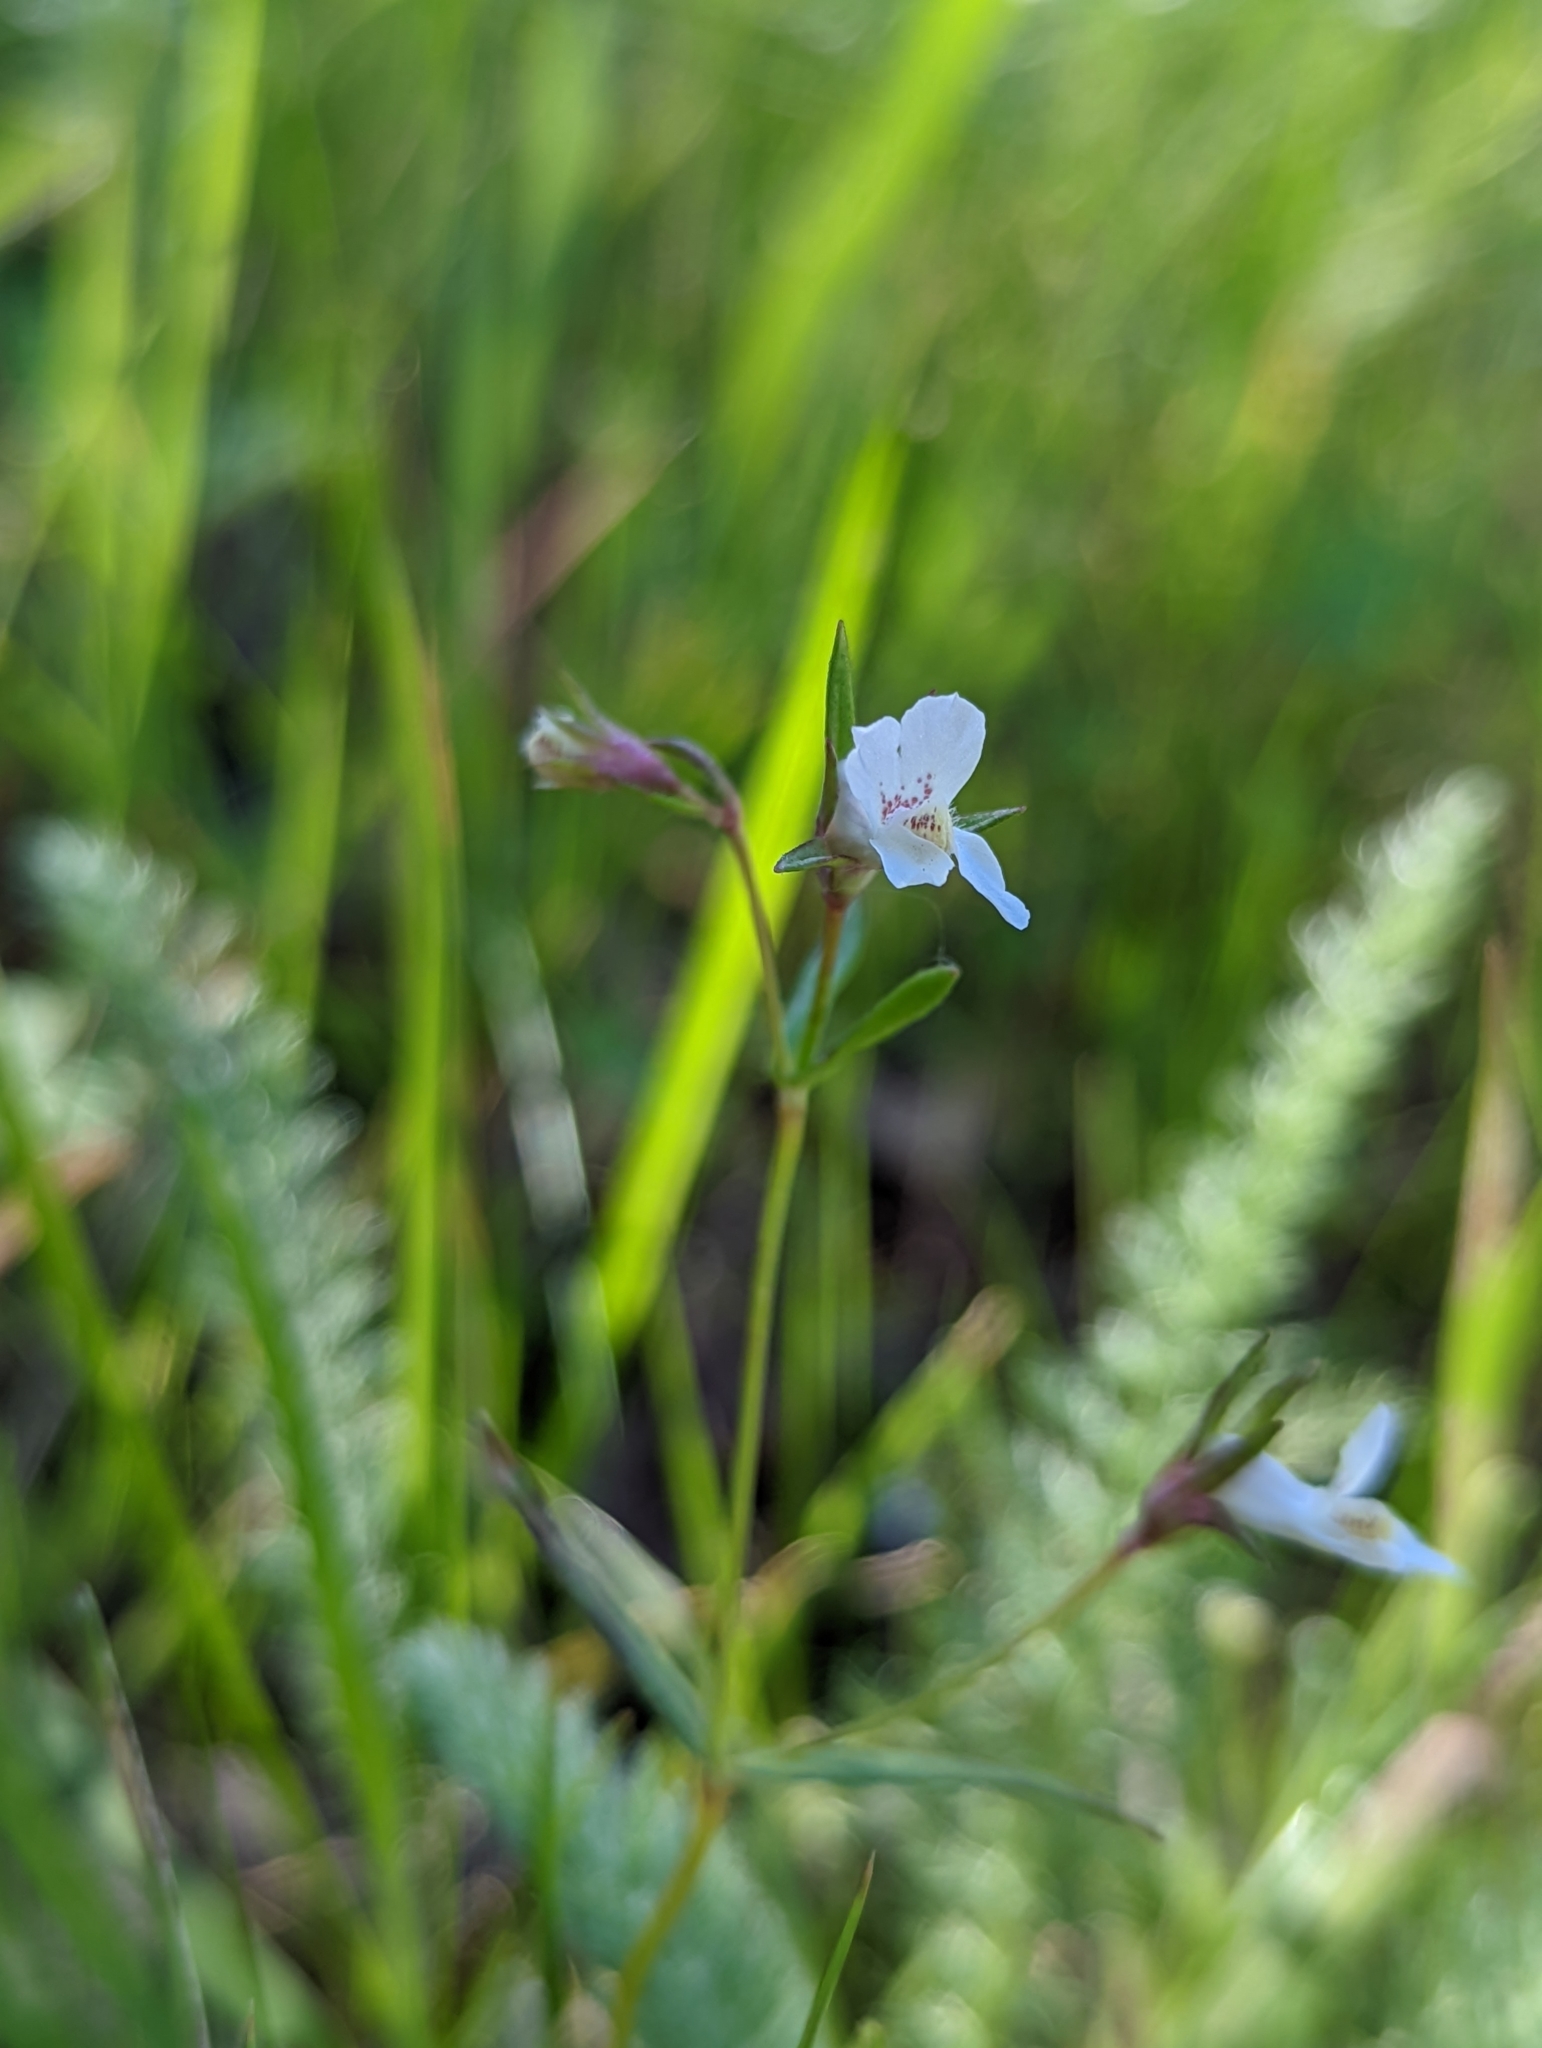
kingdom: Plantae
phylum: Tracheophyta
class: Magnoliopsida
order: Lamiales
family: Plantaginaceae
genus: Collinsia
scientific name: Collinsia sparsiflora
